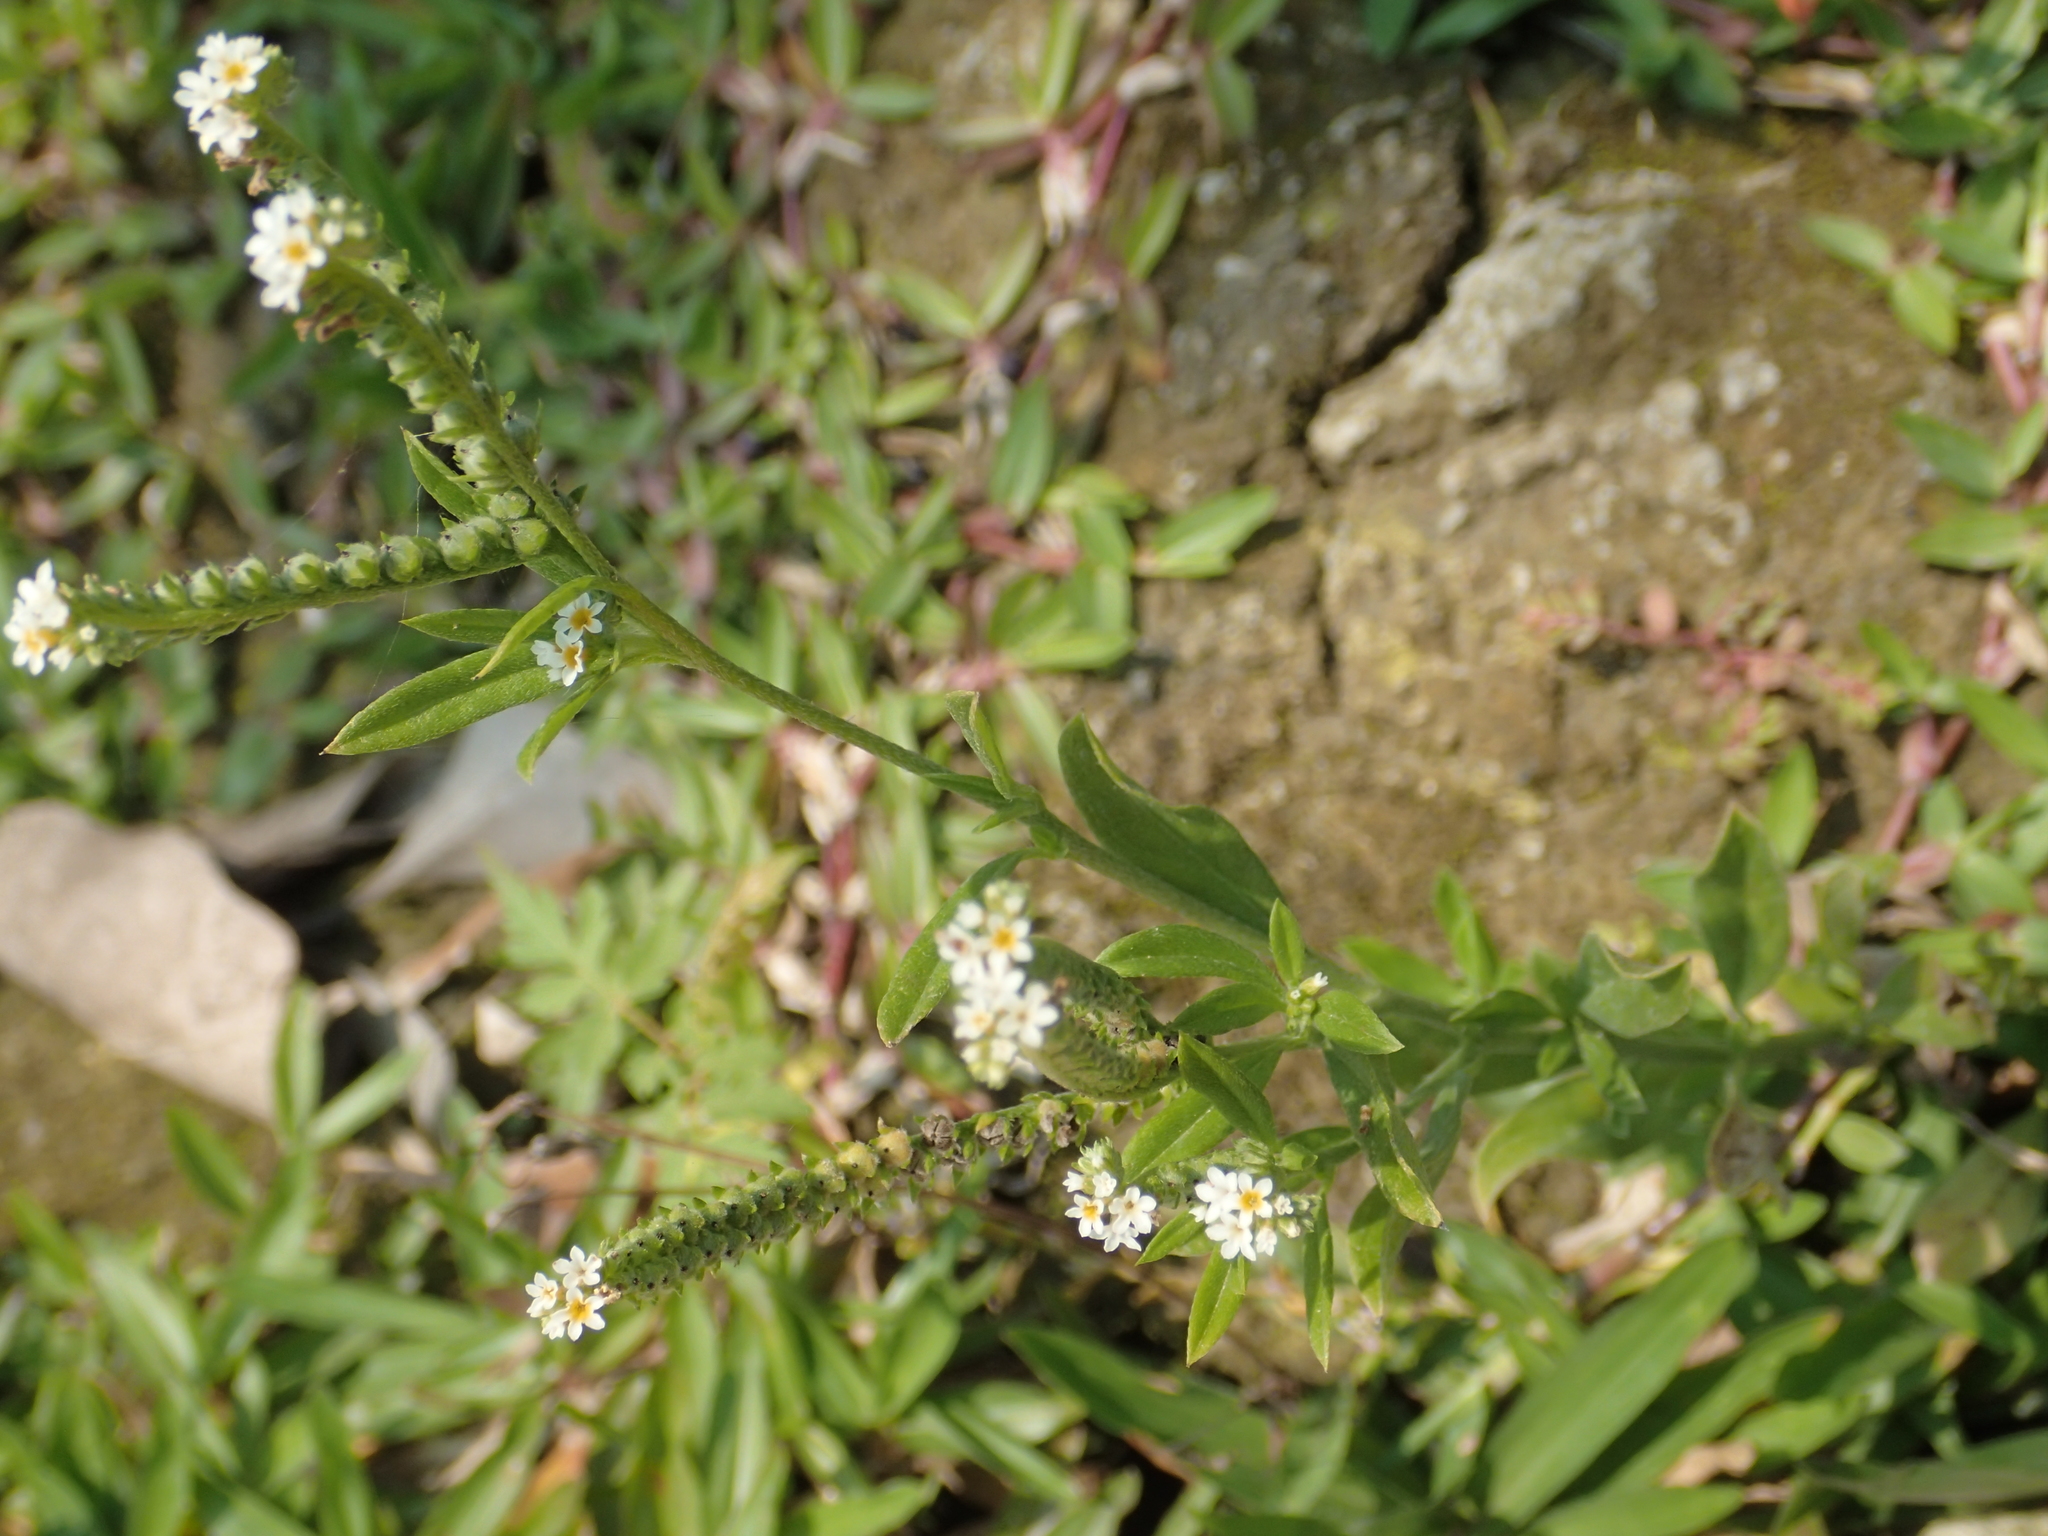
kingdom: Plantae
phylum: Tracheophyta
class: Magnoliopsida
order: Boraginales
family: Heliotropiaceae
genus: Euploca
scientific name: Euploca procumbens
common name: Fourspike heliotrope
